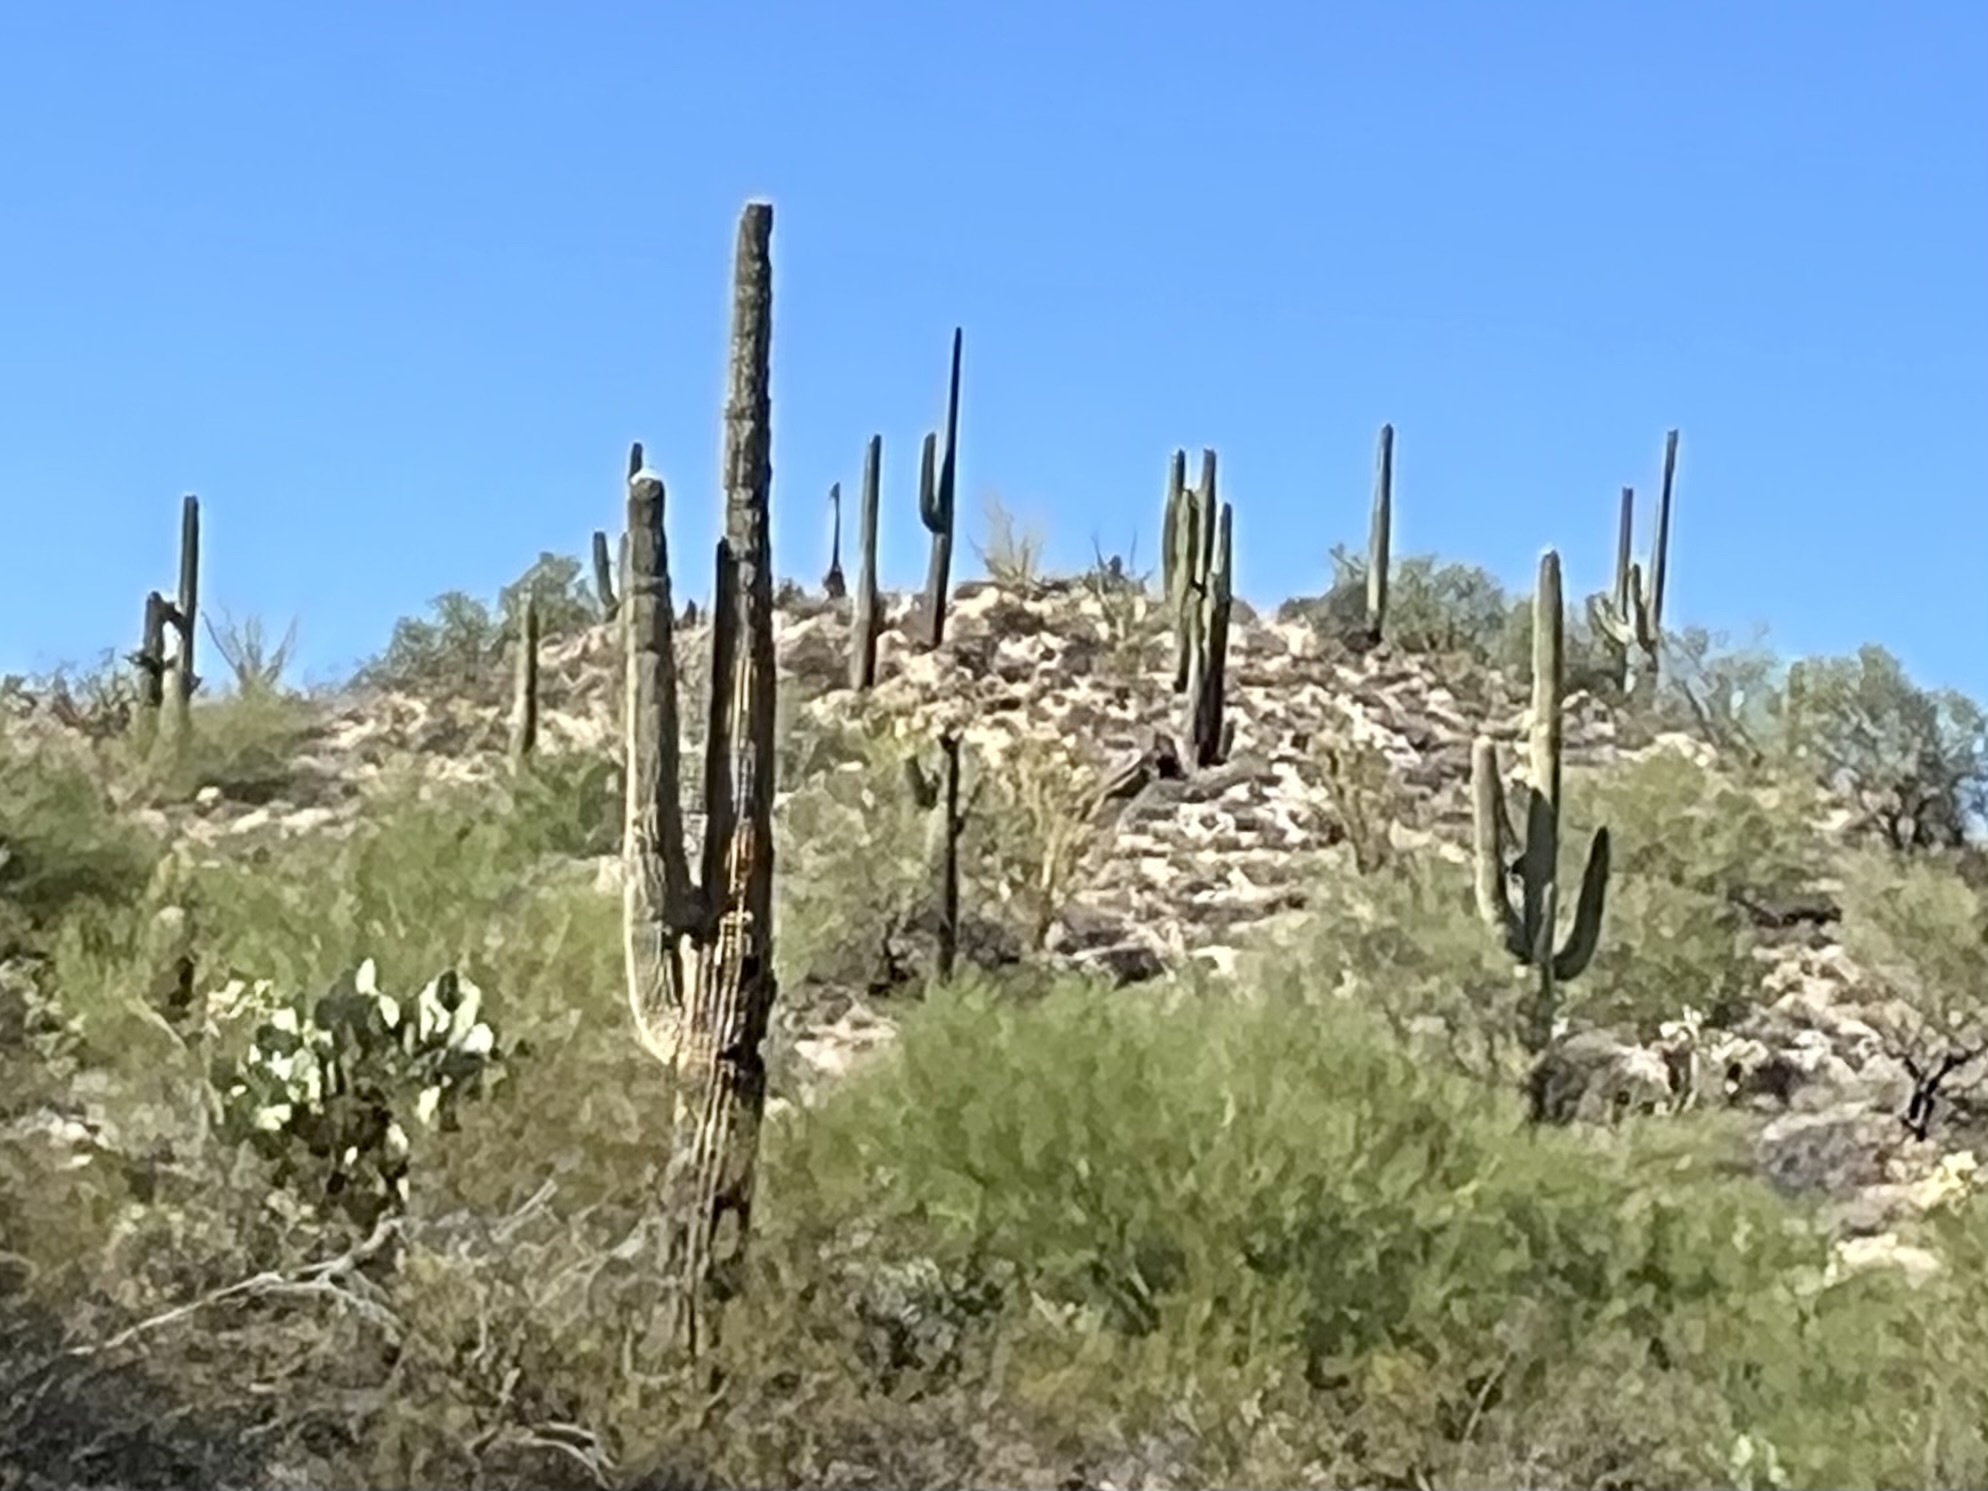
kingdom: Plantae
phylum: Tracheophyta
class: Magnoliopsida
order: Caryophyllales
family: Cactaceae
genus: Carnegiea
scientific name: Carnegiea gigantea
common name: Saguaro
